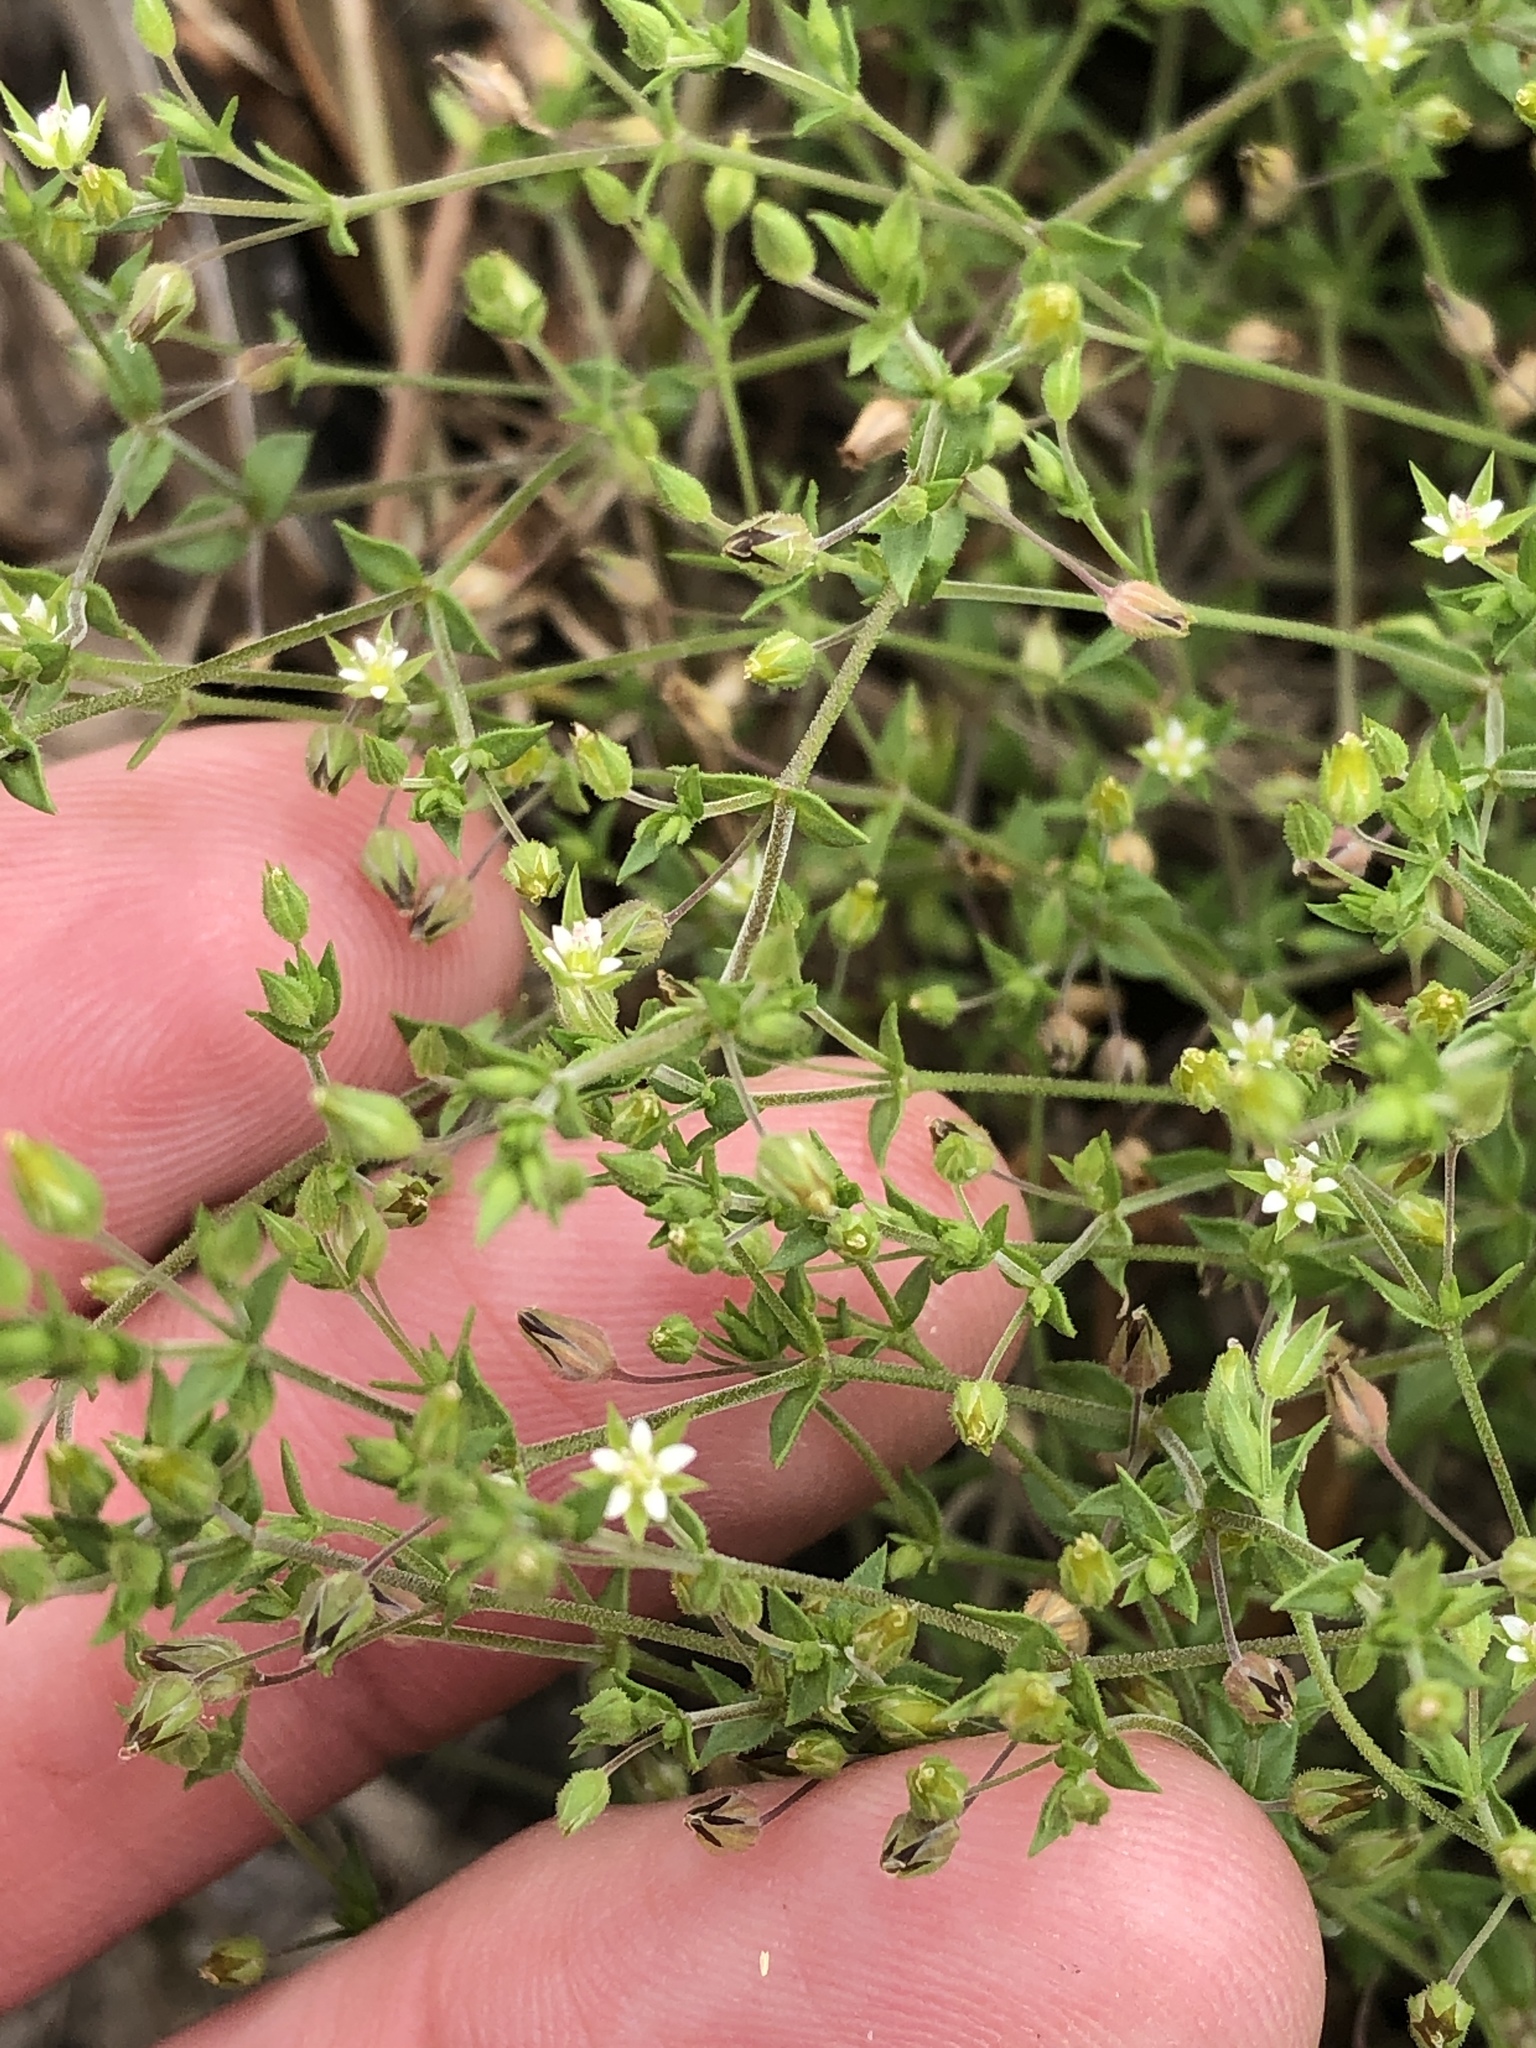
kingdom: Plantae
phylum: Tracheophyta
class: Magnoliopsida
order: Caryophyllales
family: Caryophyllaceae
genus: Arenaria
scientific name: Arenaria serpyllifolia
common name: Thyme-leaved sandwort
